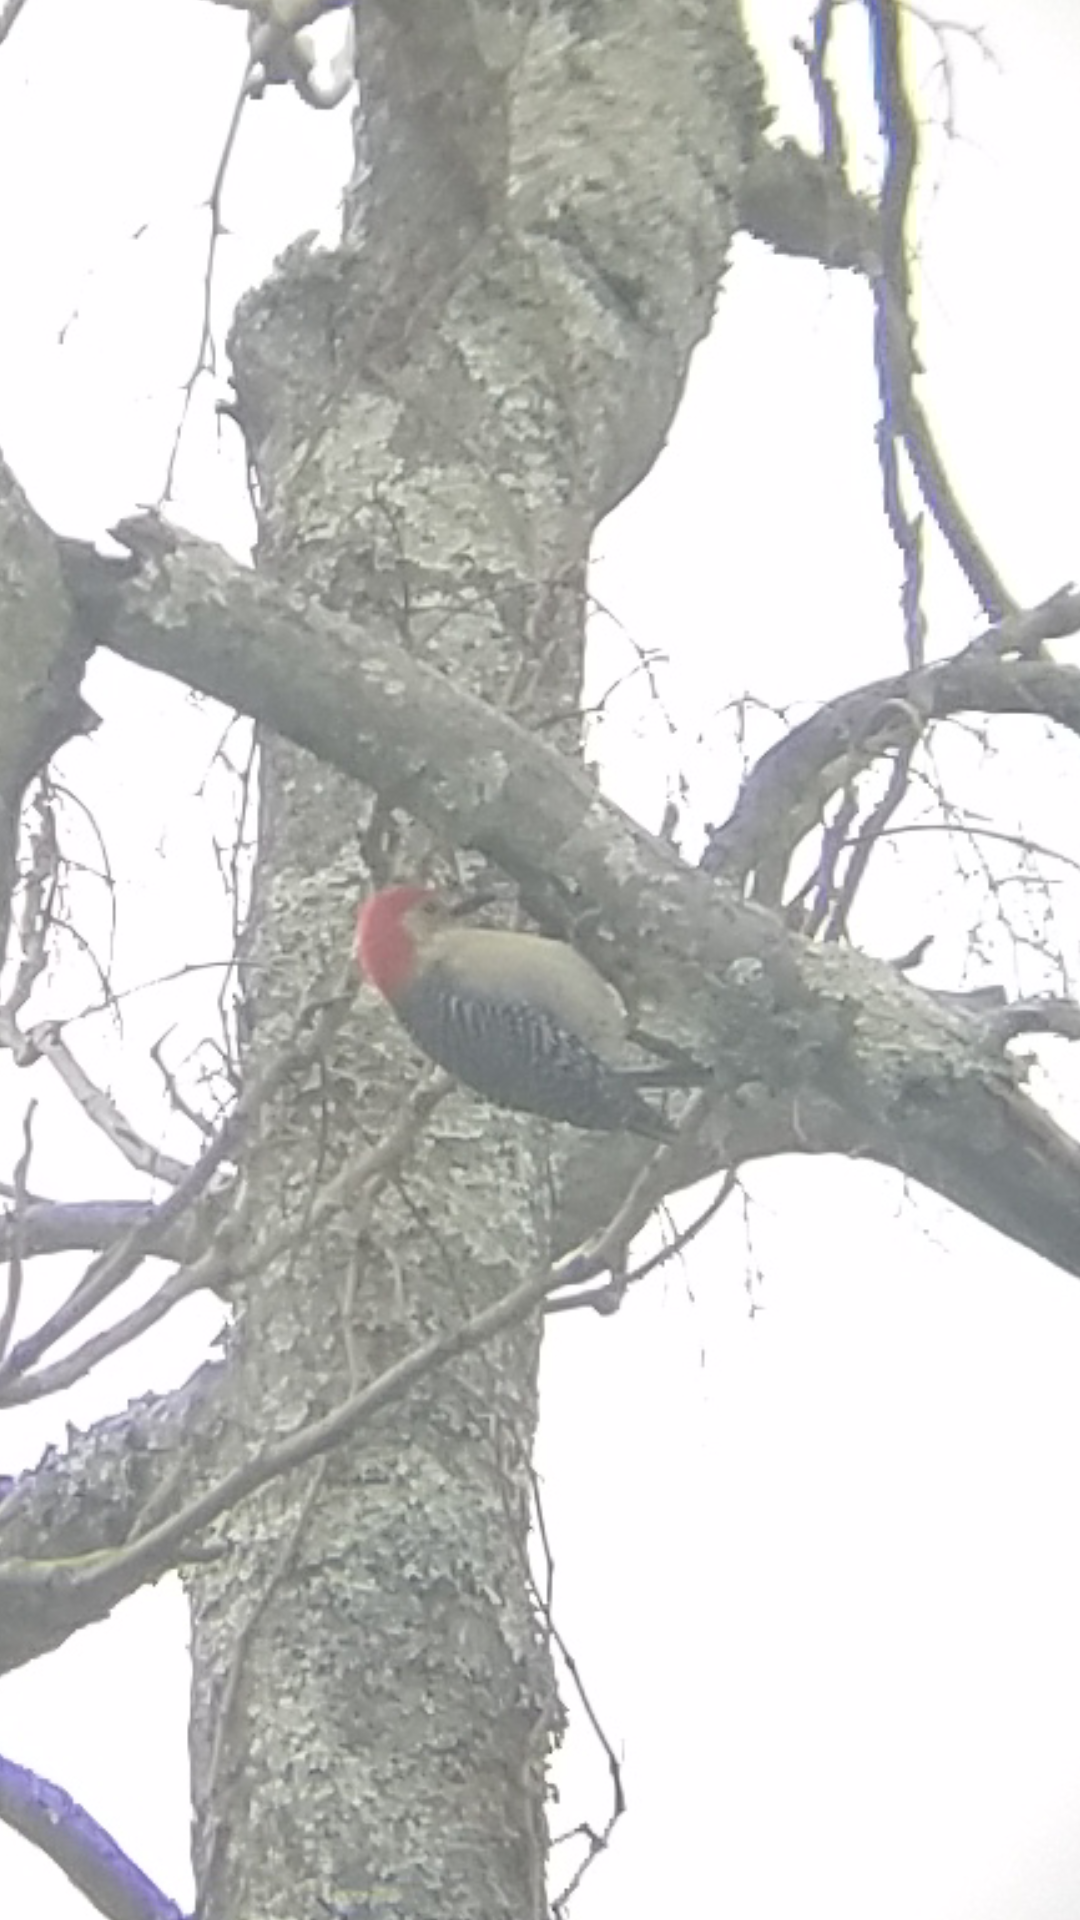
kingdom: Animalia
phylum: Chordata
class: Aves
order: Piciformes
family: Picidae
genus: Melanerpes
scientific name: Melanerpes carolinus
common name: Red-bellied woodpecker
